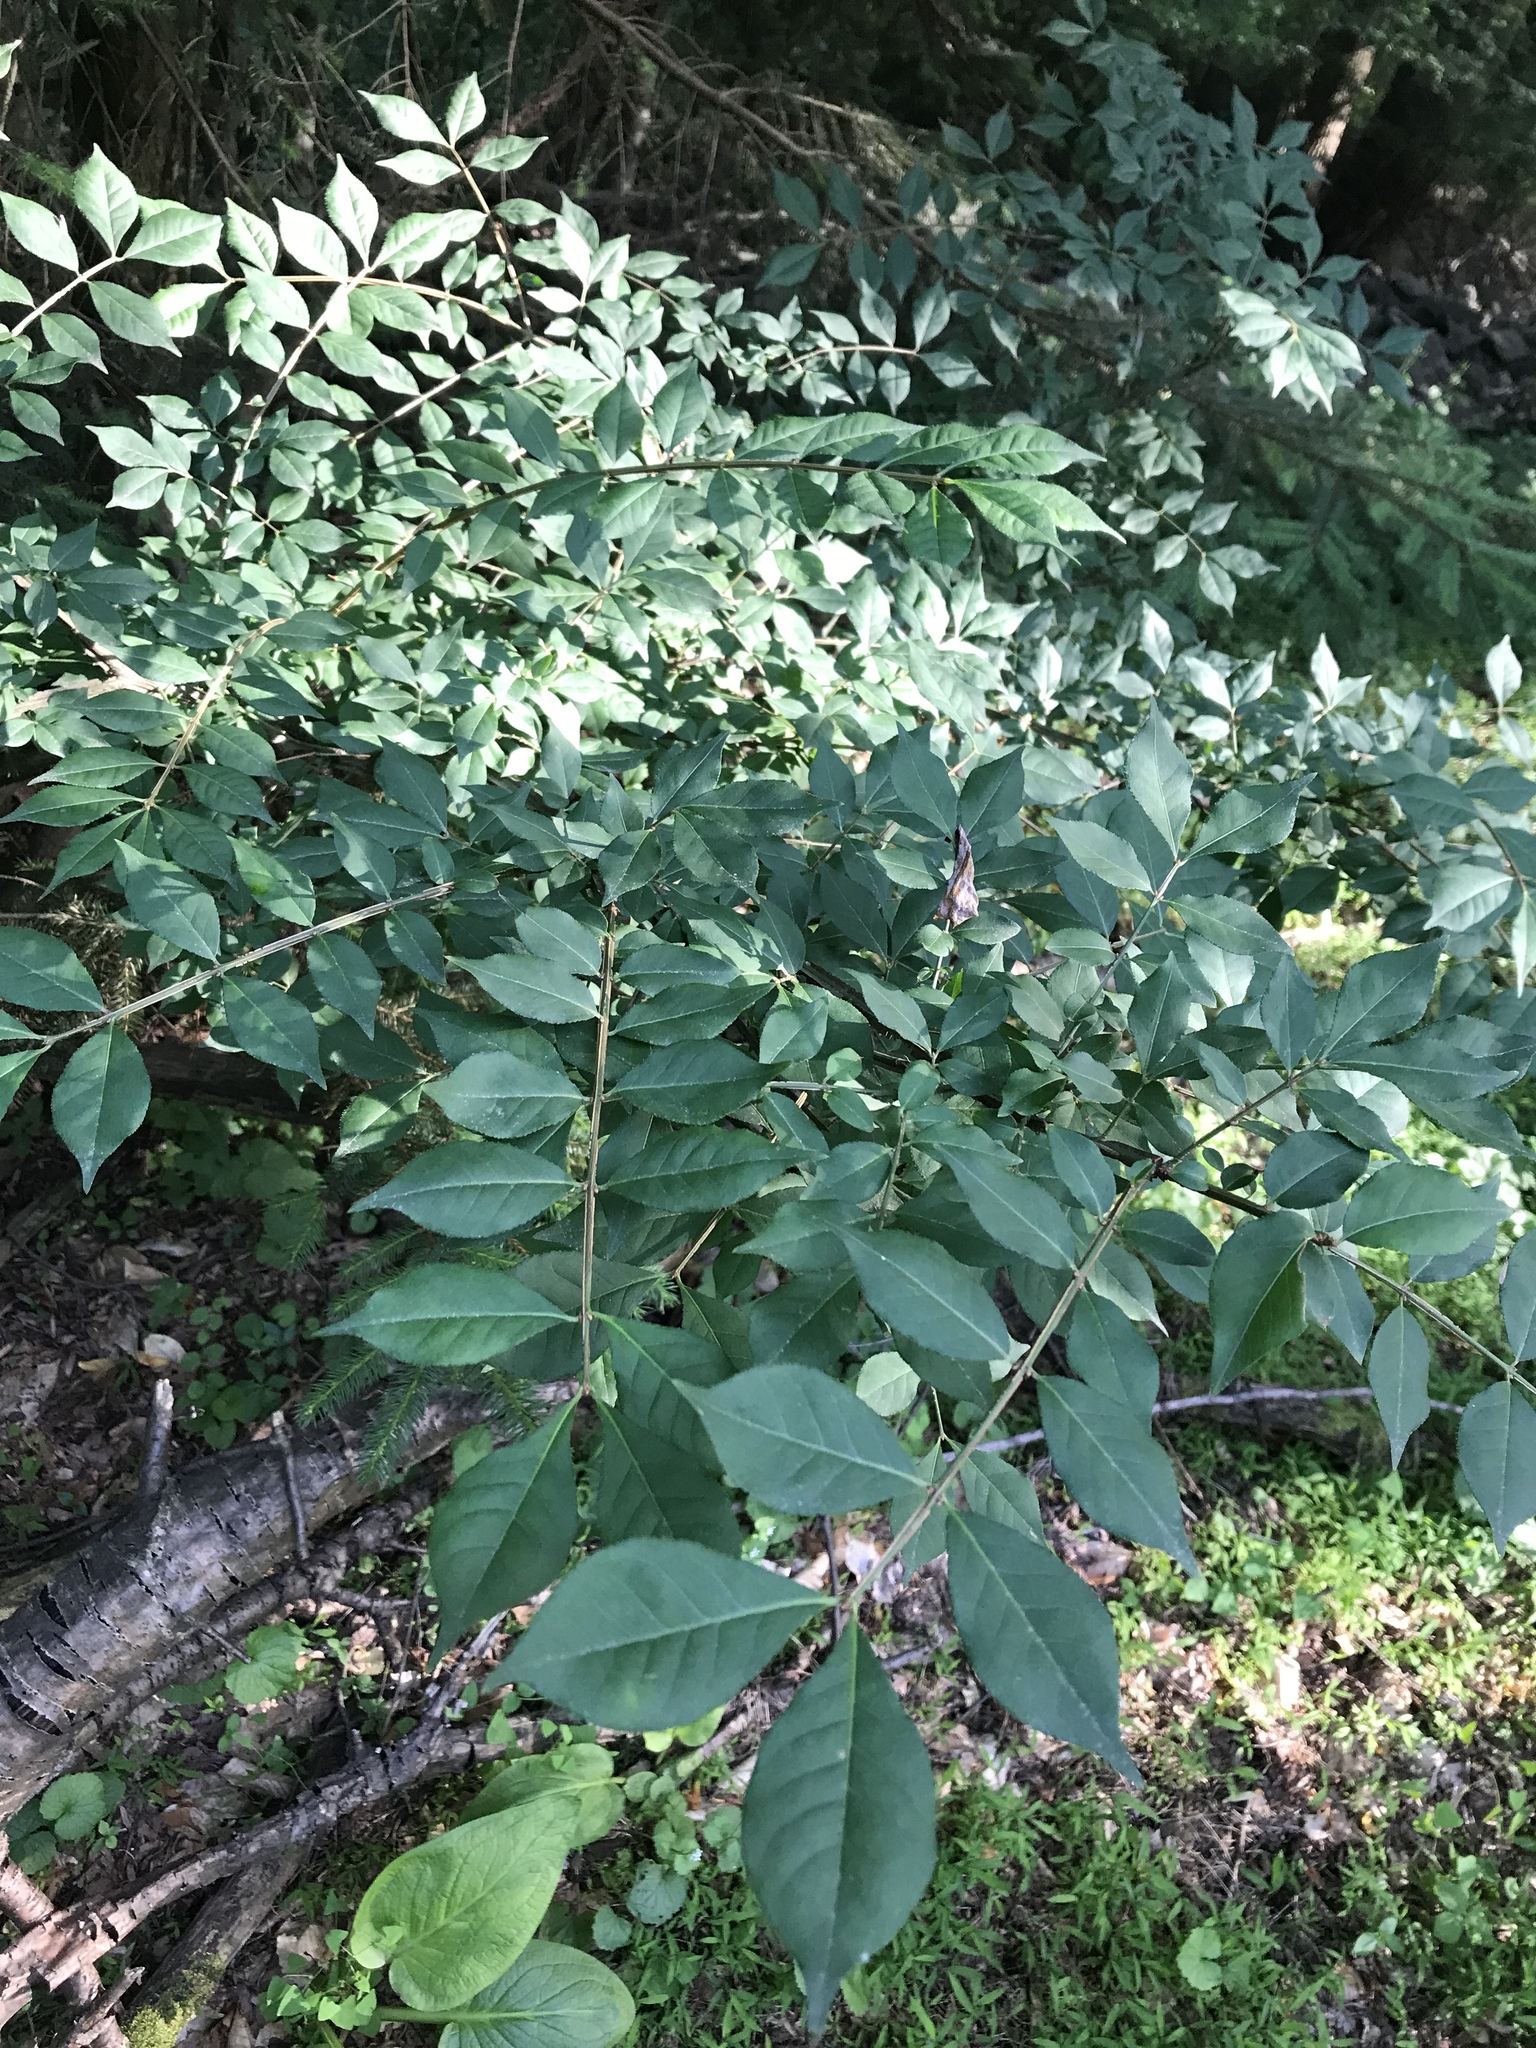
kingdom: Plantae
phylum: Tracheophyta
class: Magnoliopsida
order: Celastrales
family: Celastraceae
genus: Euonymus
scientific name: Euonymus alatus
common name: Winged euonymus
